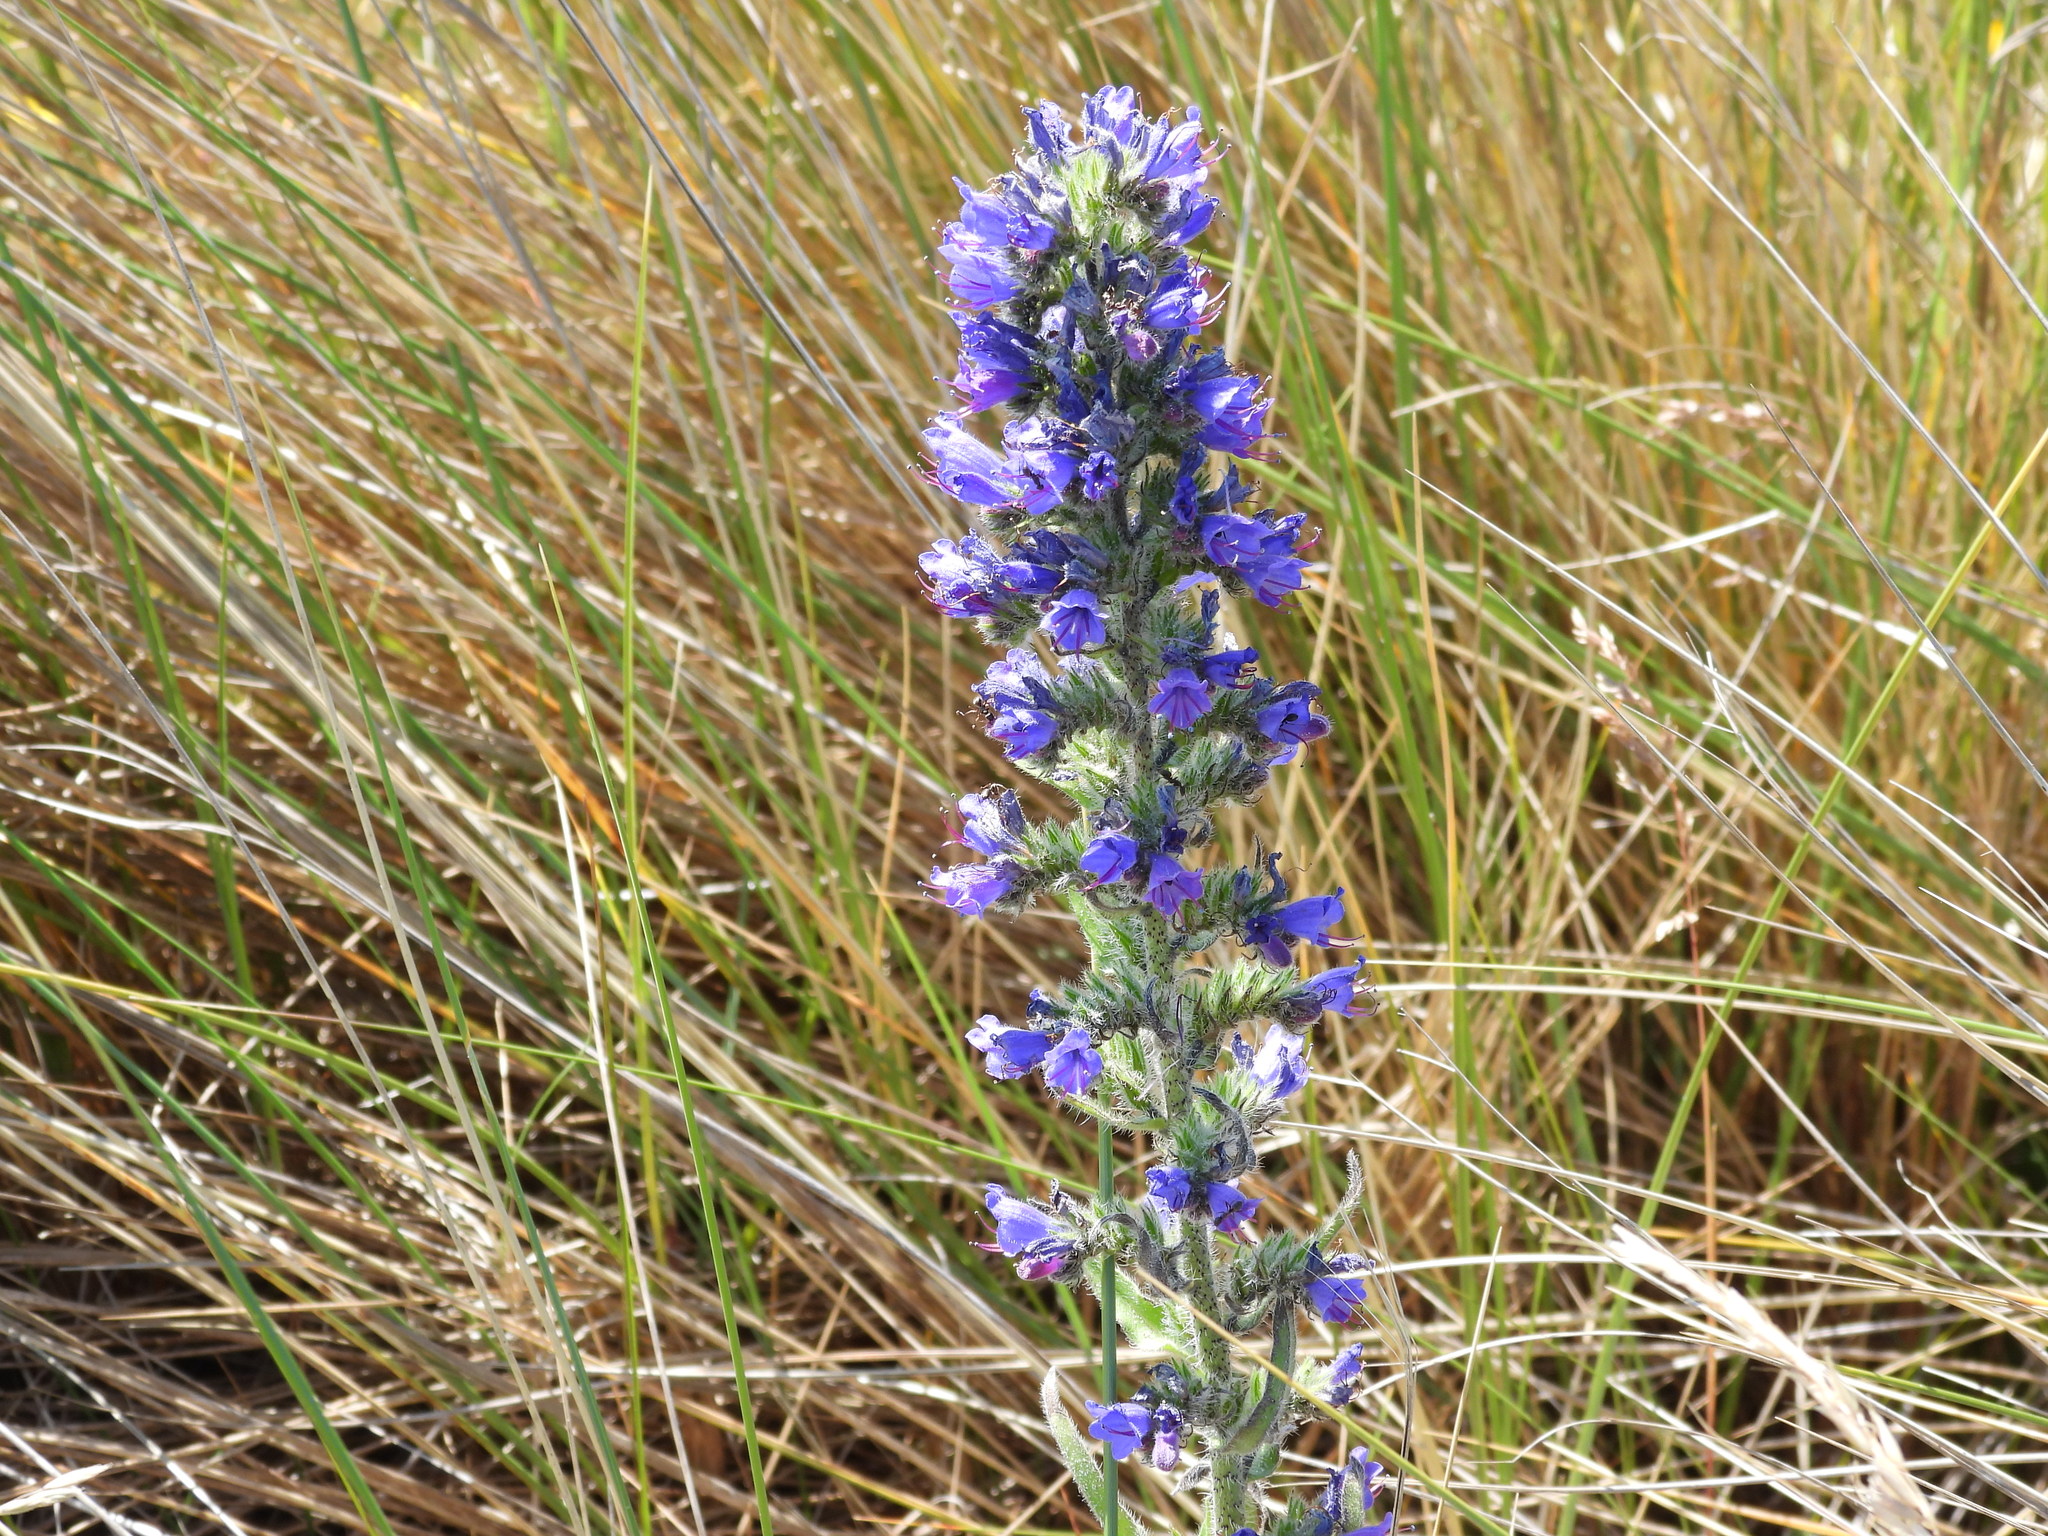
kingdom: Plantae
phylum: Tracheophyta
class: Magnoliopsida
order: Boraginales
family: Boraginaceae
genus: Echium
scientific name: Echium vulgare
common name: Common viper's bugloss
